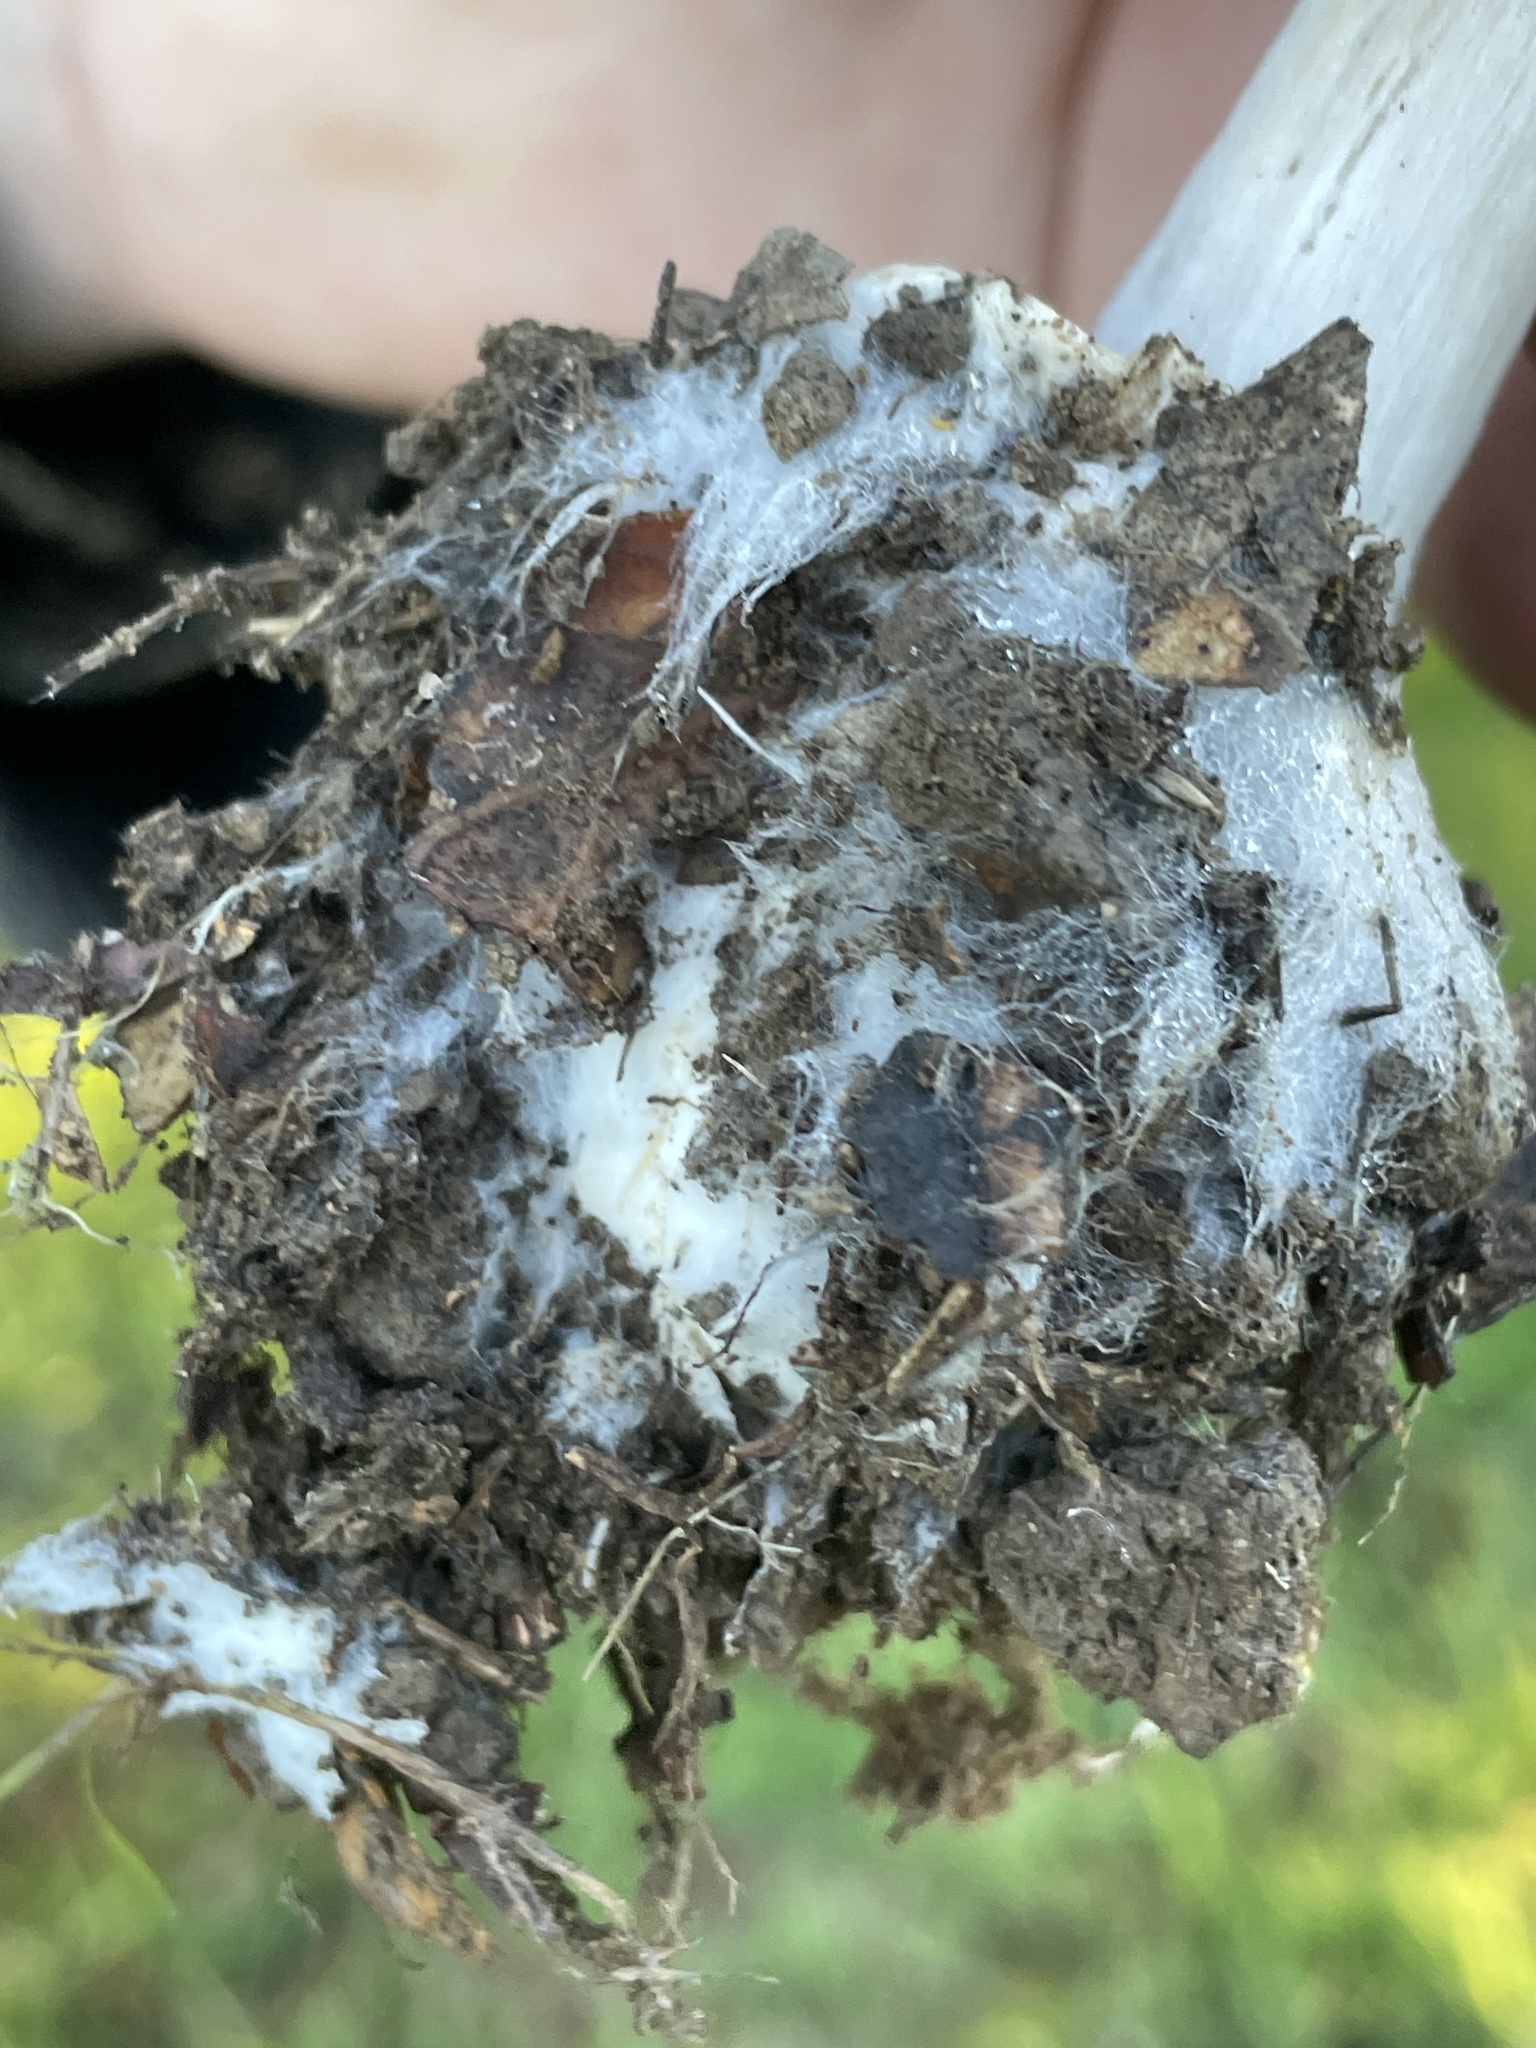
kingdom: Fungi
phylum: Basidiomycota
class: Agaricomycetes
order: Agaricales
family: Pluteaceae
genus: Volvopluteus
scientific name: Volvopluteus gloiocephalus
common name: Stubble rosegill
